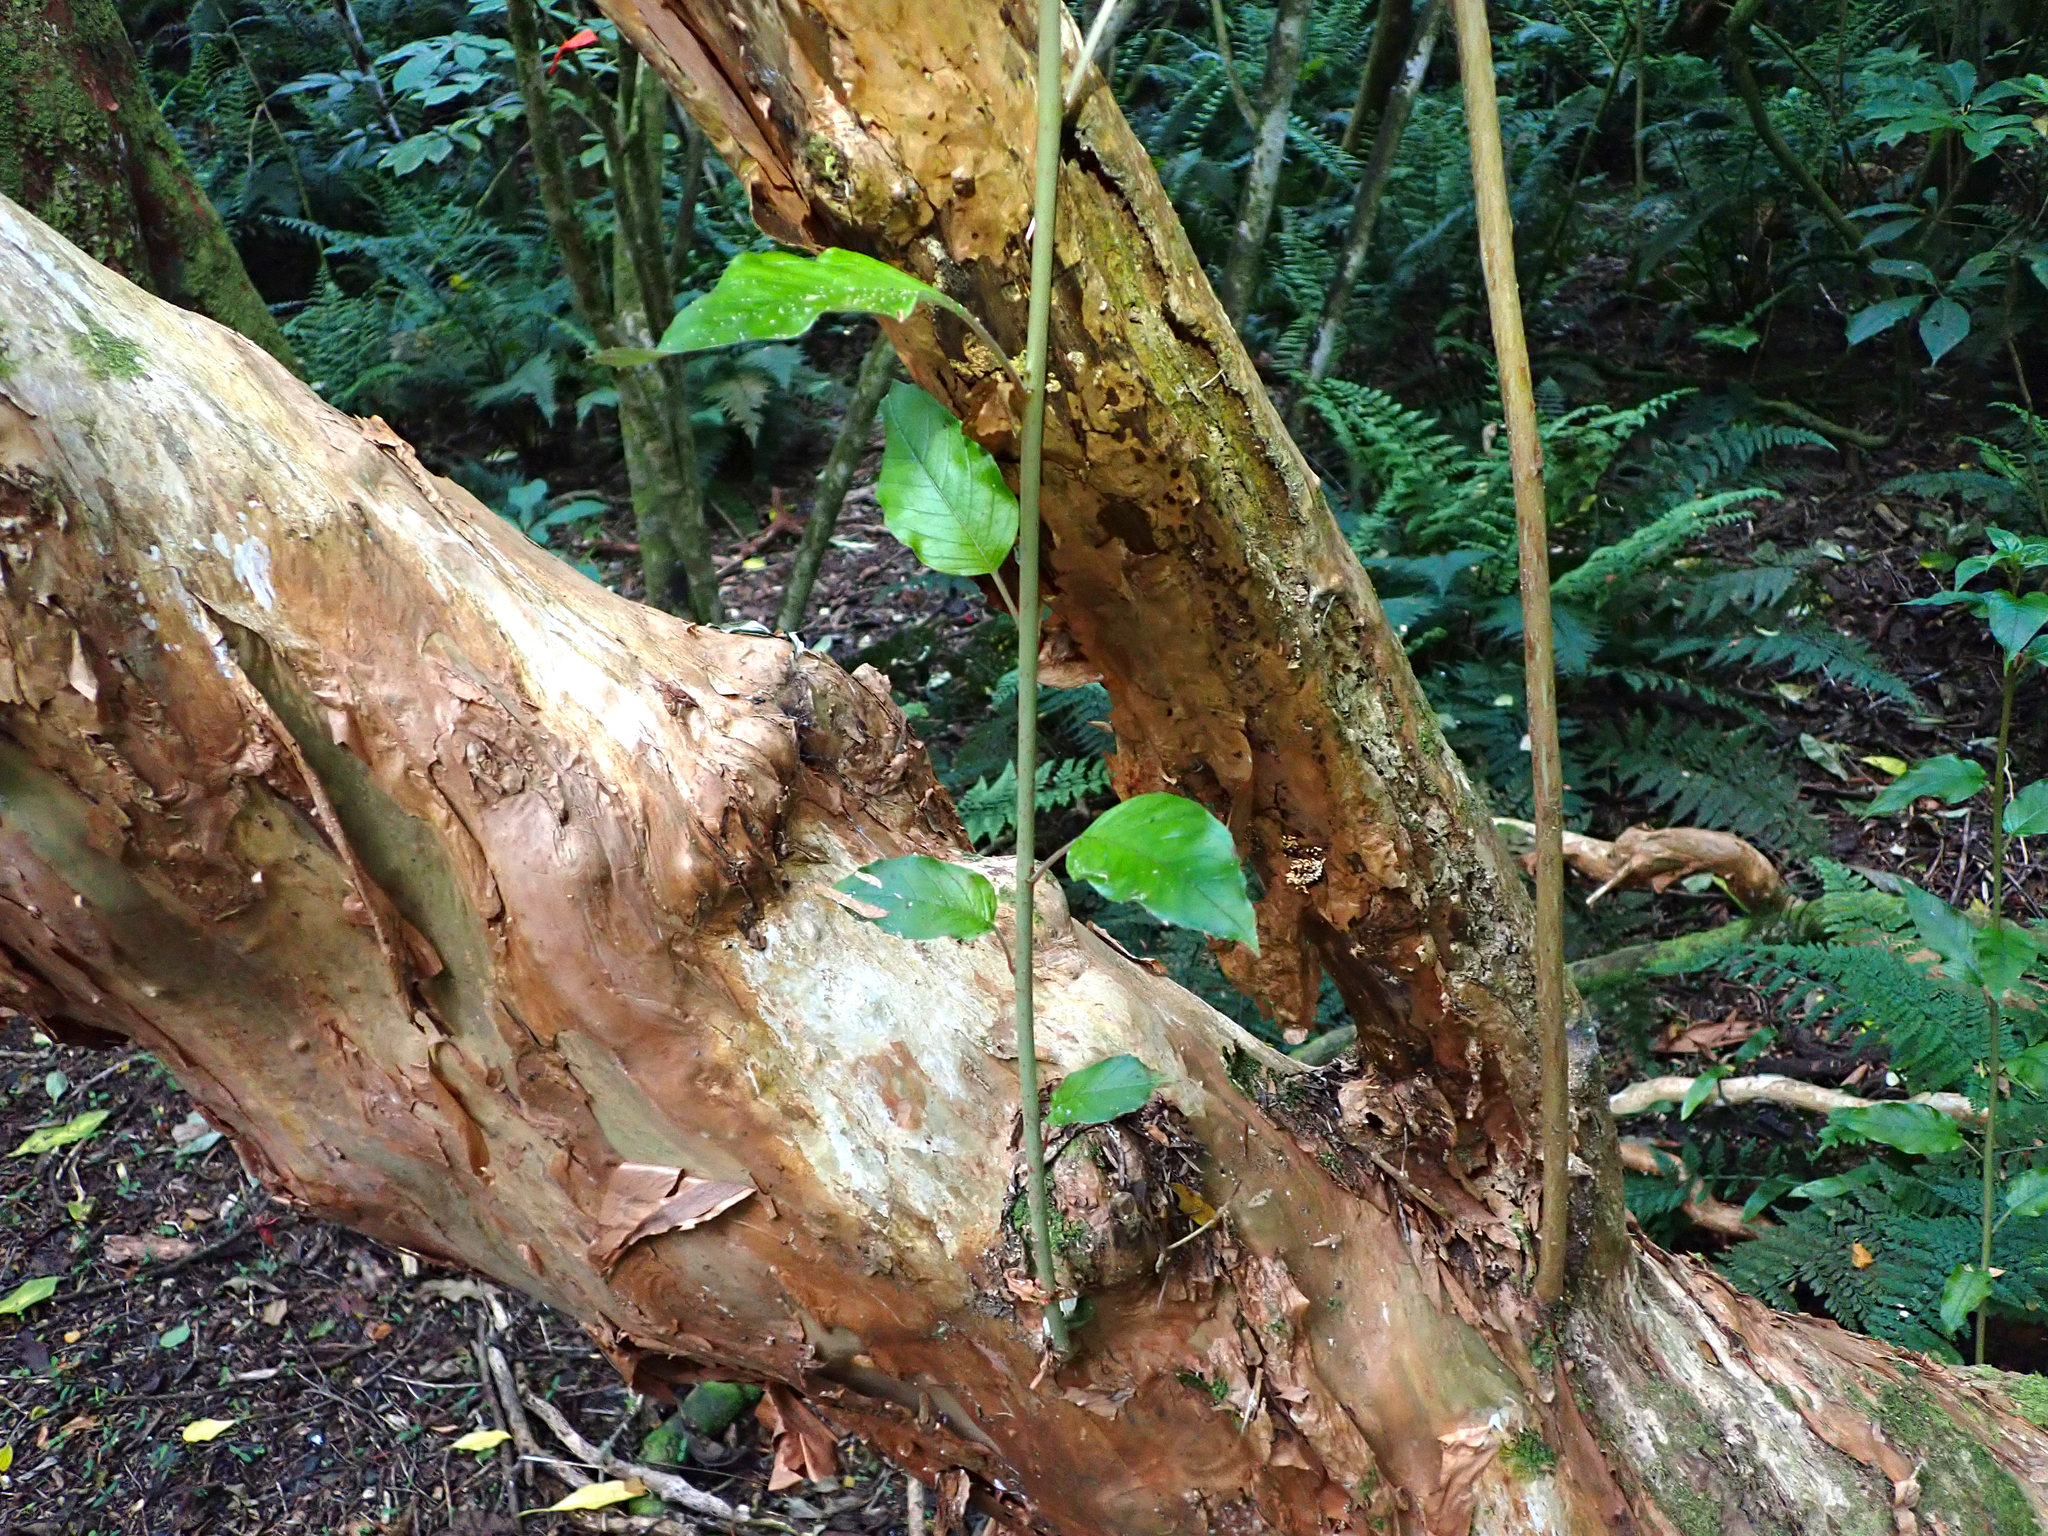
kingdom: Plantae
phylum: Tracheophyta
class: Magnoliopsida
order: Myrtales
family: Onagraceae
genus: Fuchsia
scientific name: Fuchsia excorticata
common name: Tree fuchsia
